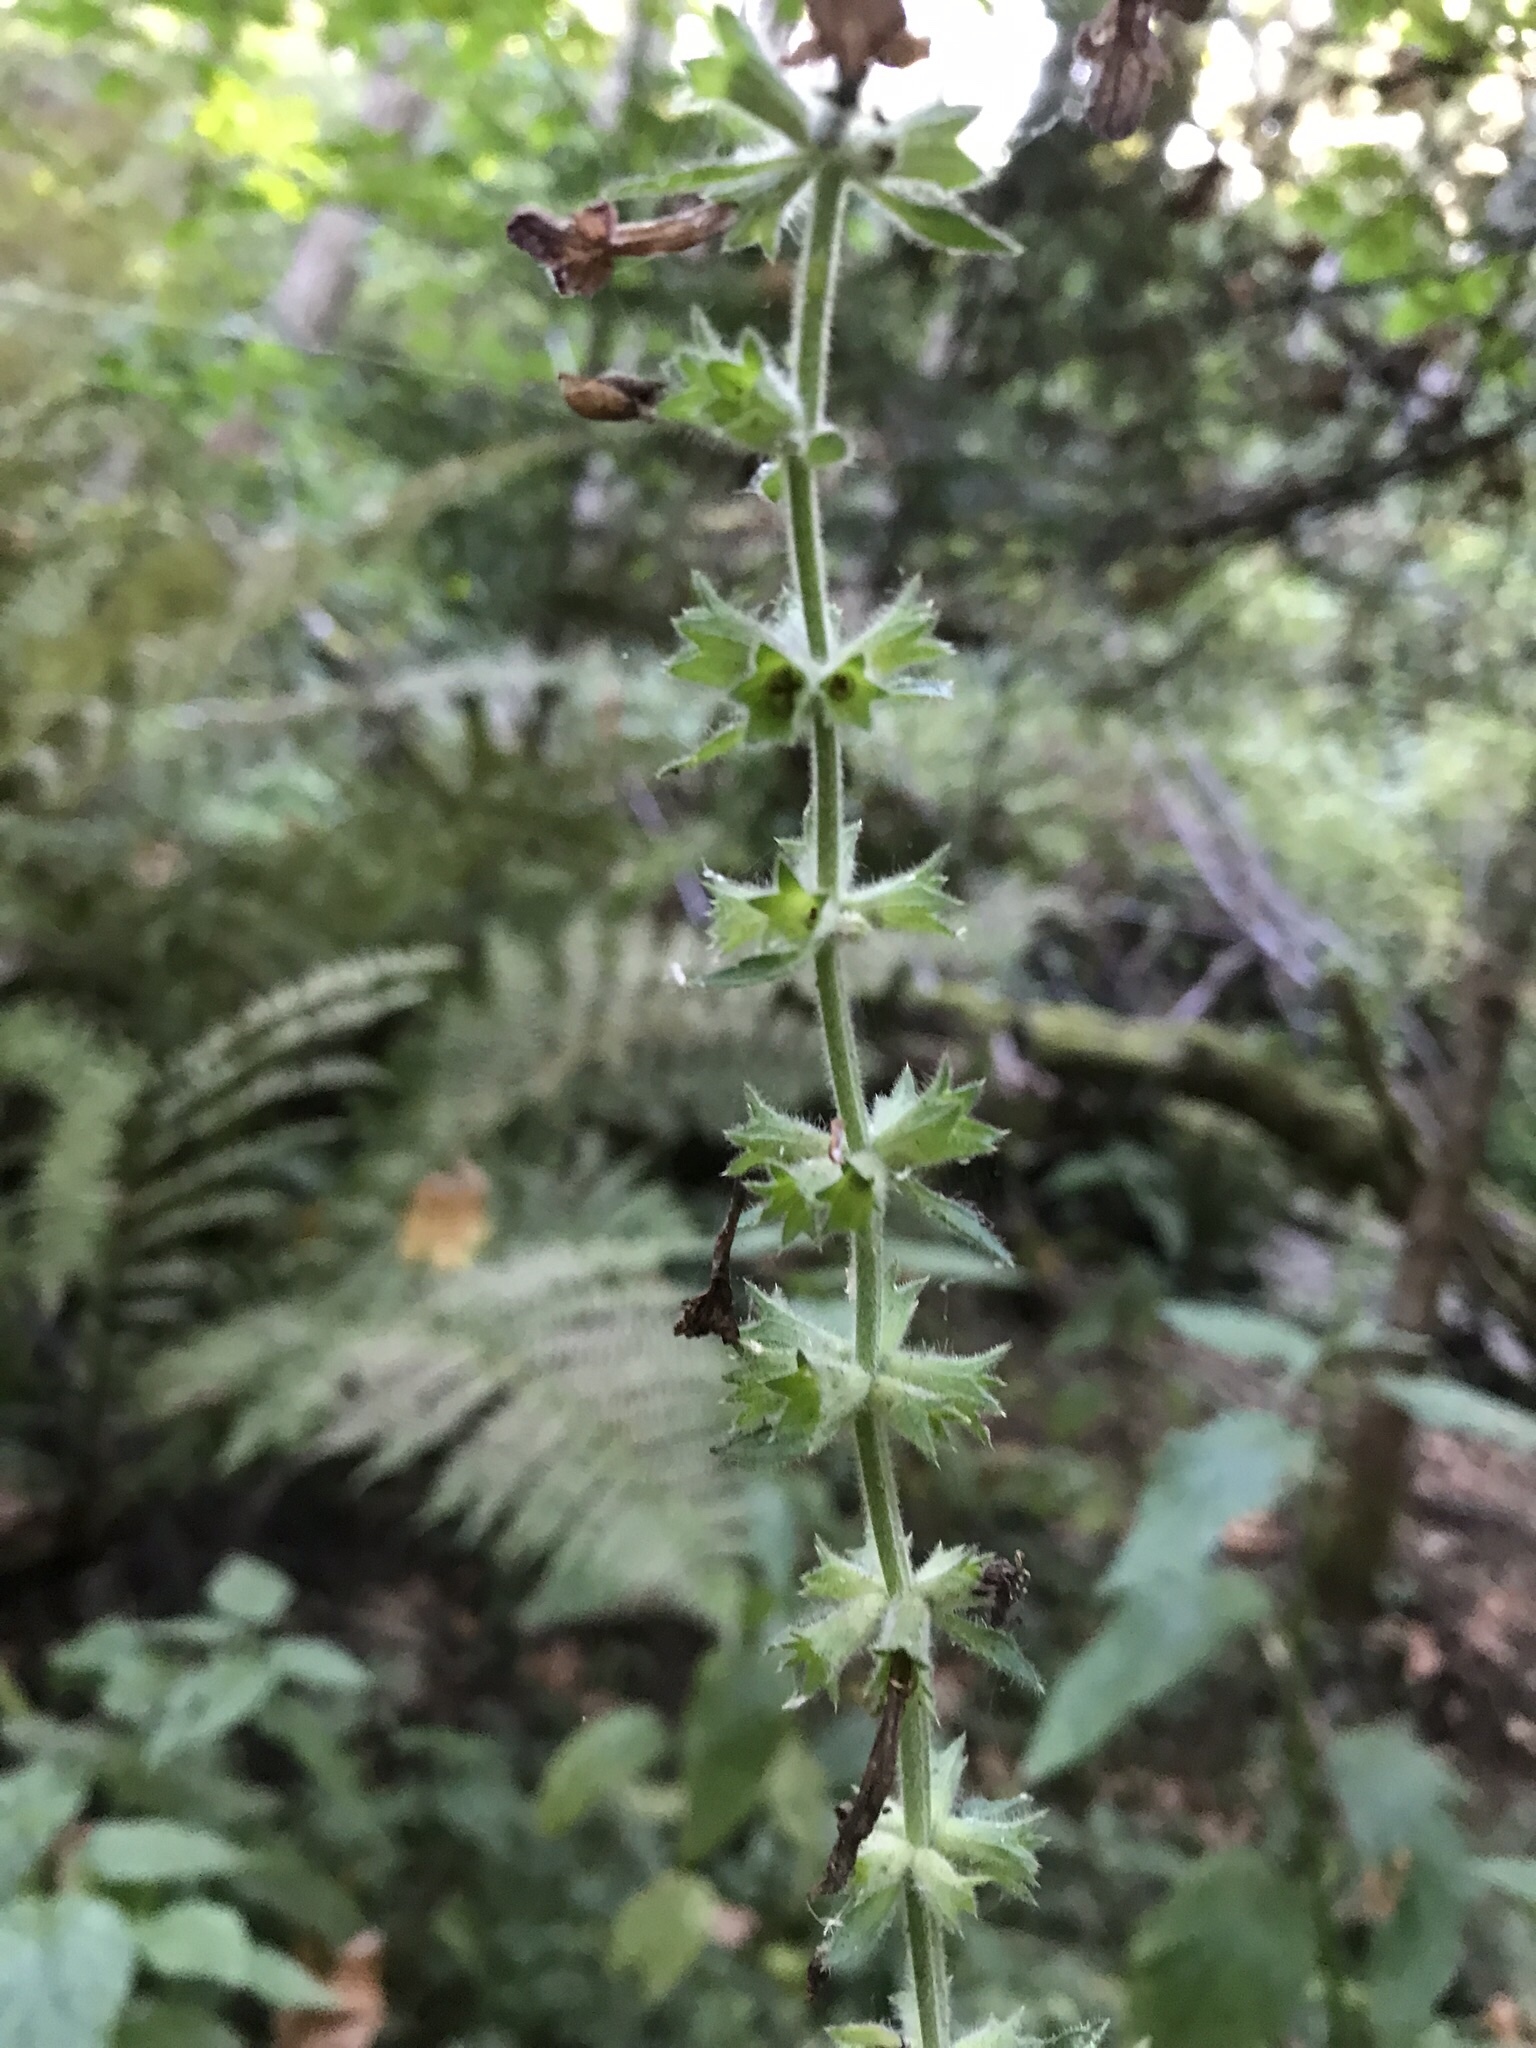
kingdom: Plantae
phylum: Tracheophyta
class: Magnoliopsida
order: Lamiales
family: Lamiaceae
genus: Stachys
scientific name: Stachys chamissonis
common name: Coastal hedge-nettle
